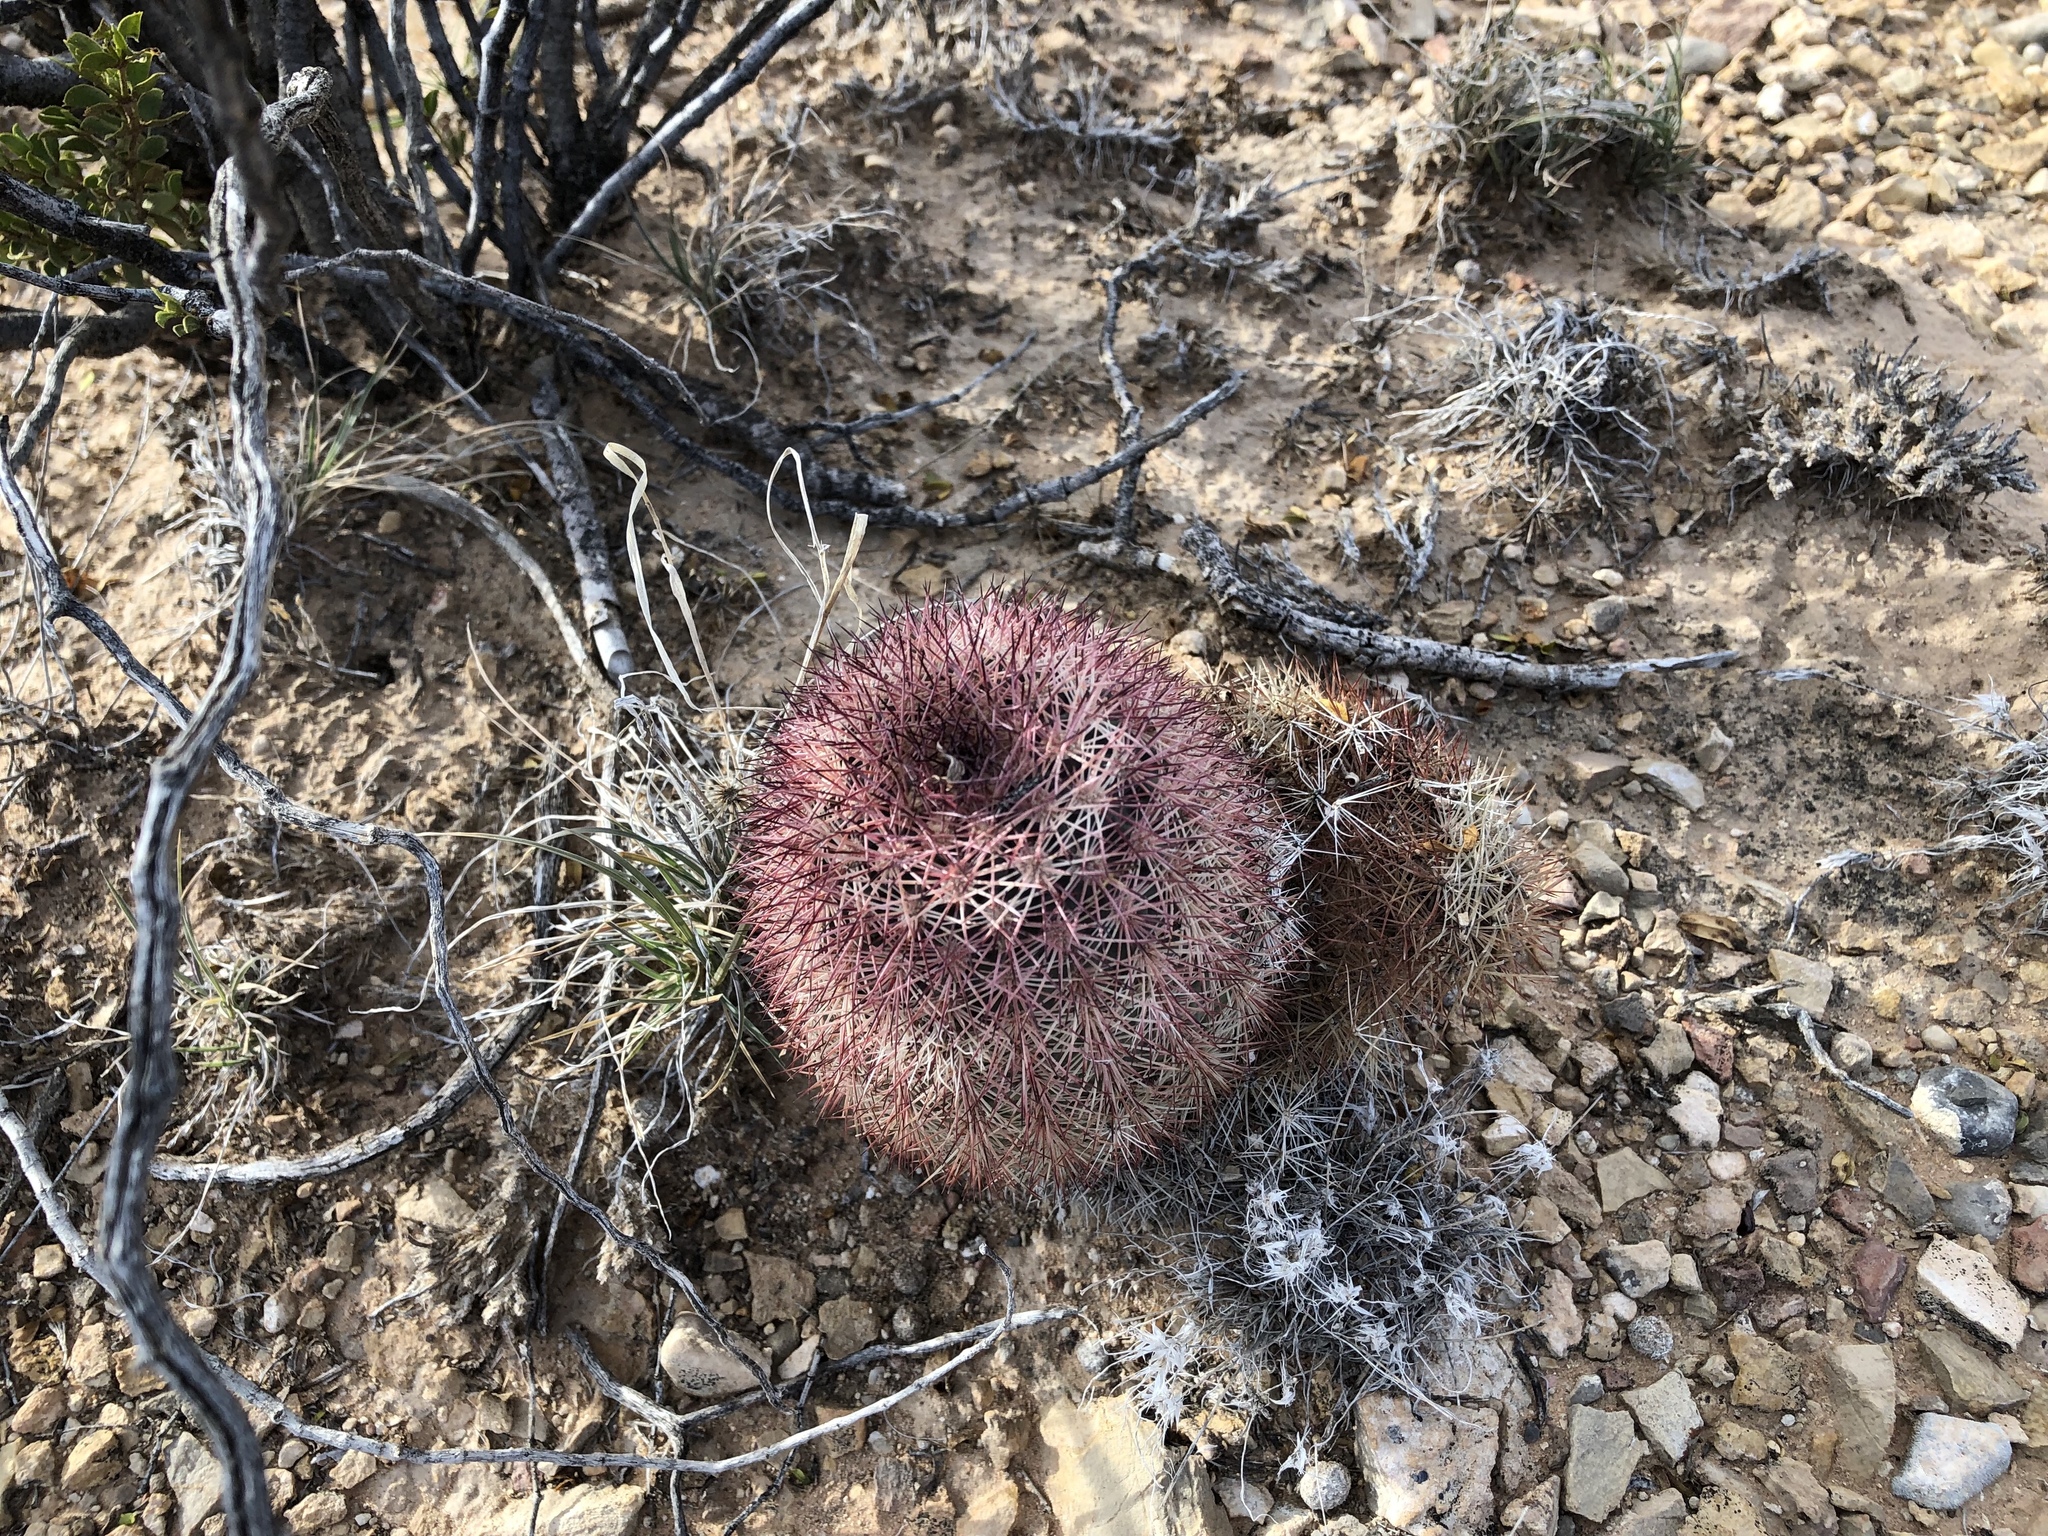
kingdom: Plantae
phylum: Tracheophyta
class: Magnoliopsida
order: Caryophyllales
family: Cactaceae
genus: Echinocereus
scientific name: Echinocereus dasyacanthus
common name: Spiny hedgehog cactus
